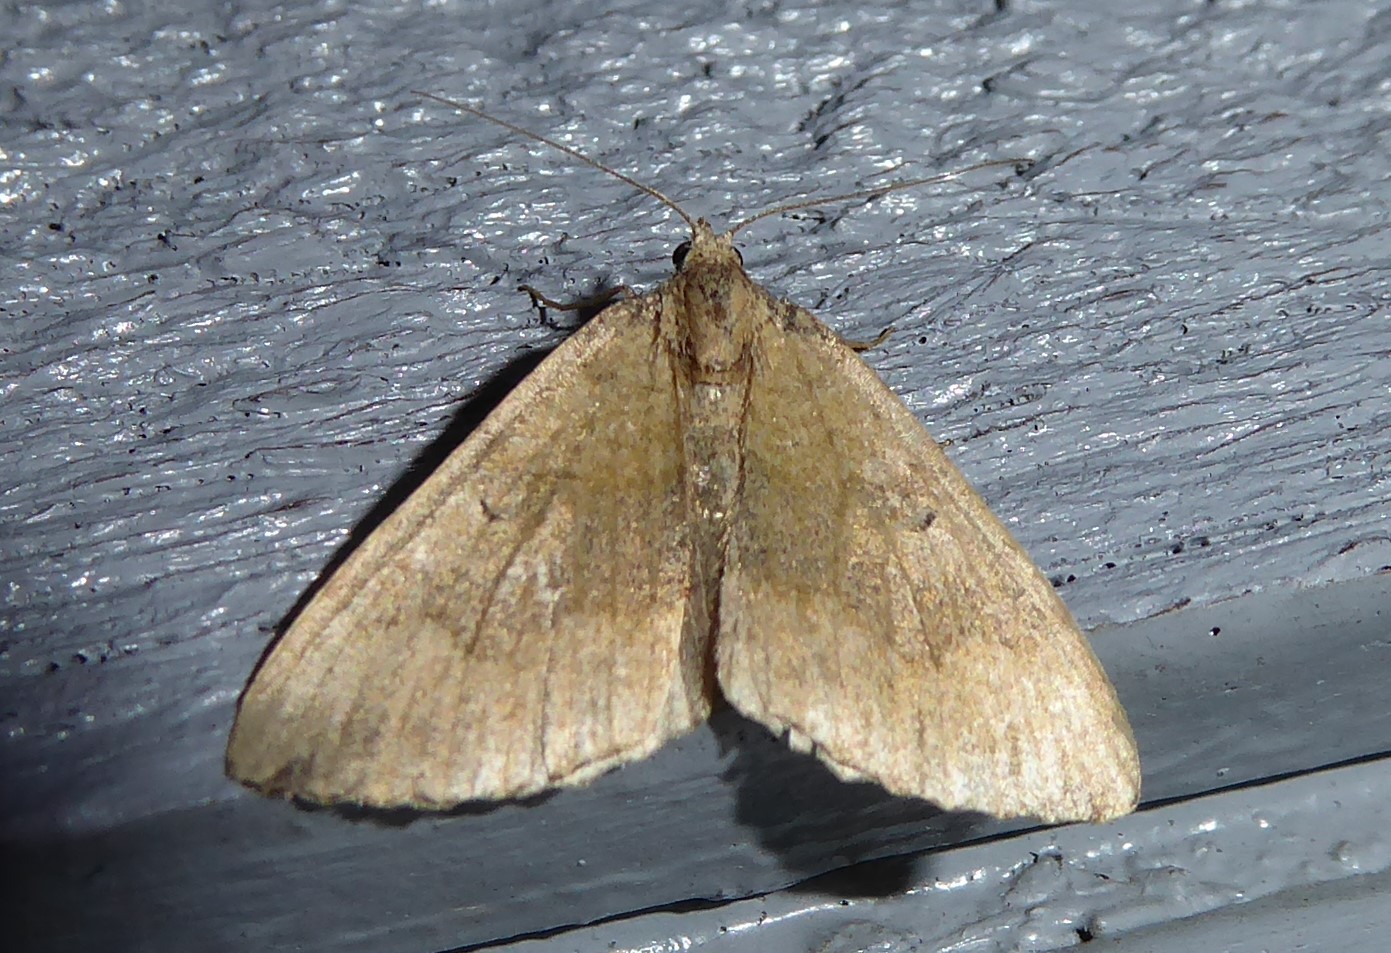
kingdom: Animalia
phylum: Arthropoda
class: Insecta
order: Lepidoptera
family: Geometridae
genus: Epyaxa
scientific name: Epyaxa rosearia
